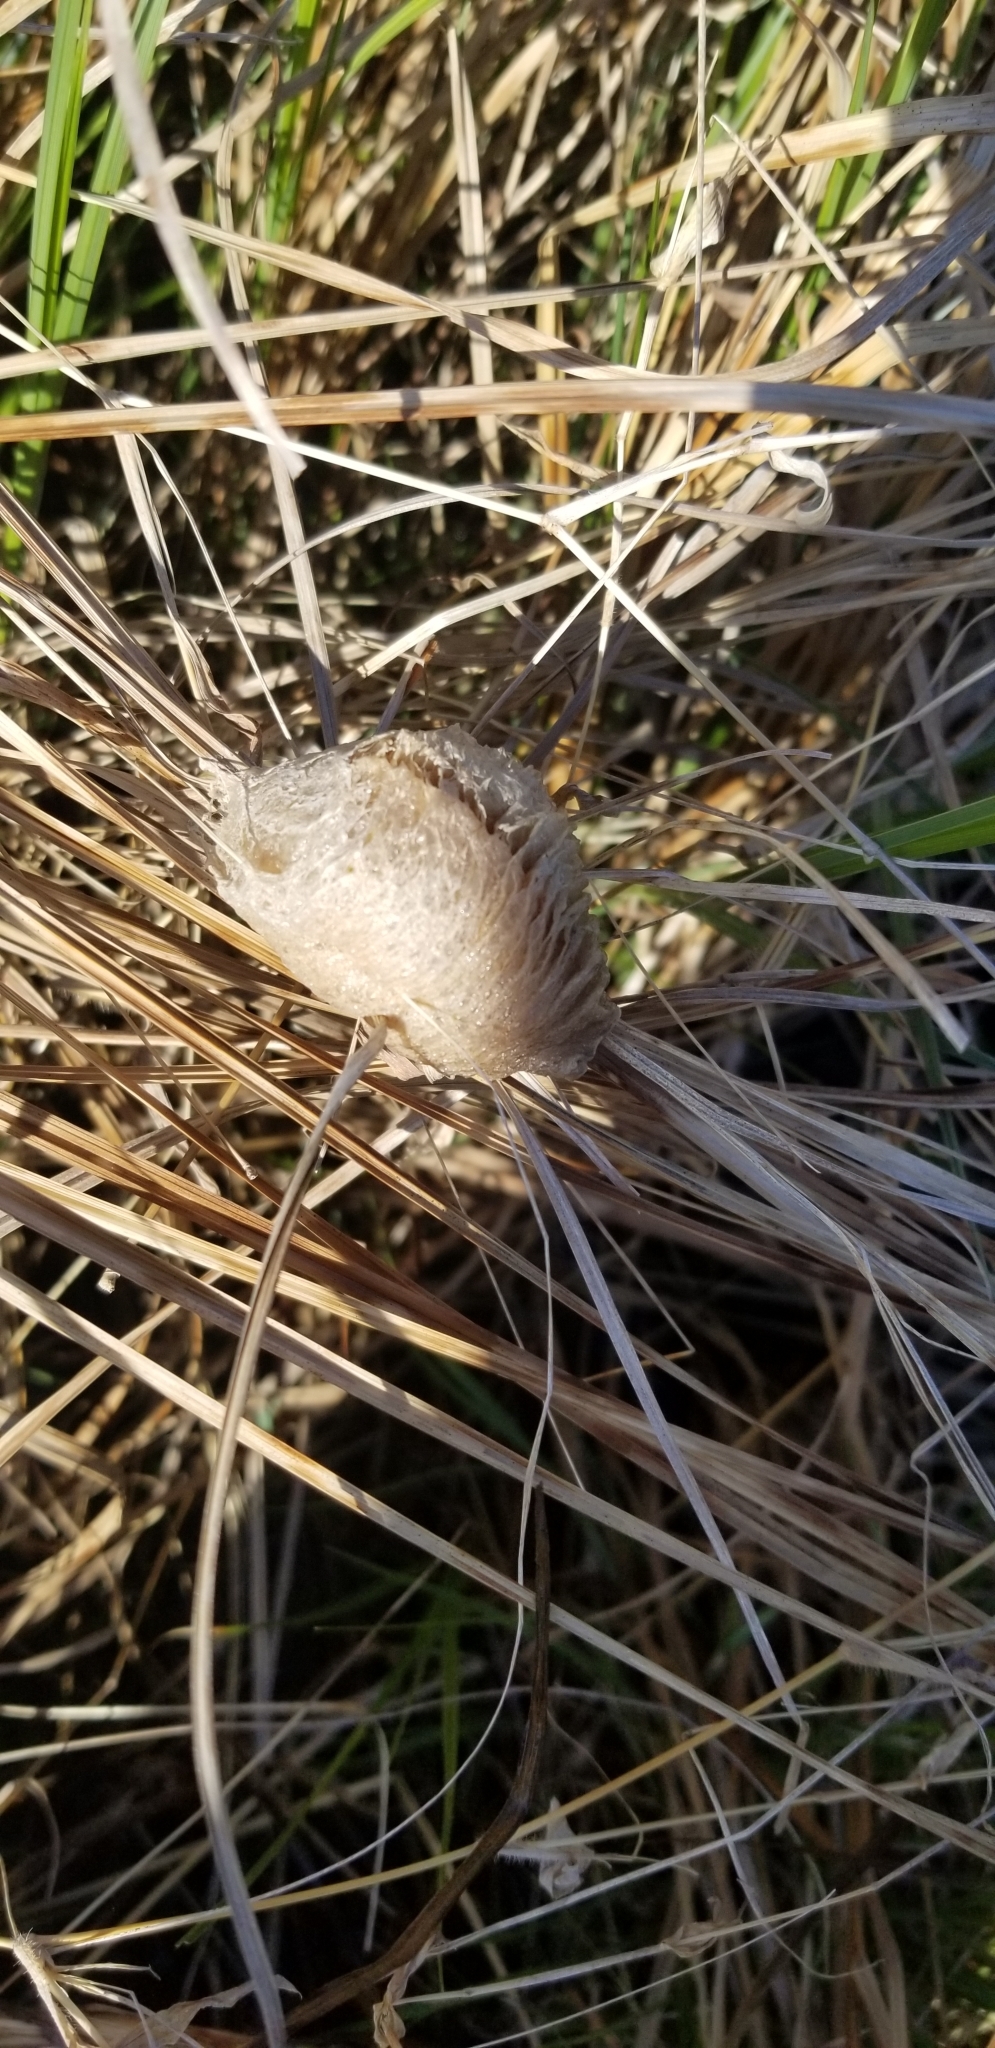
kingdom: Animalia
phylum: Arthropoda
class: Insecta
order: Mantodea
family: Mantidae
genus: Mantis
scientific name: Mantis religiosa
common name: Praying mantis
